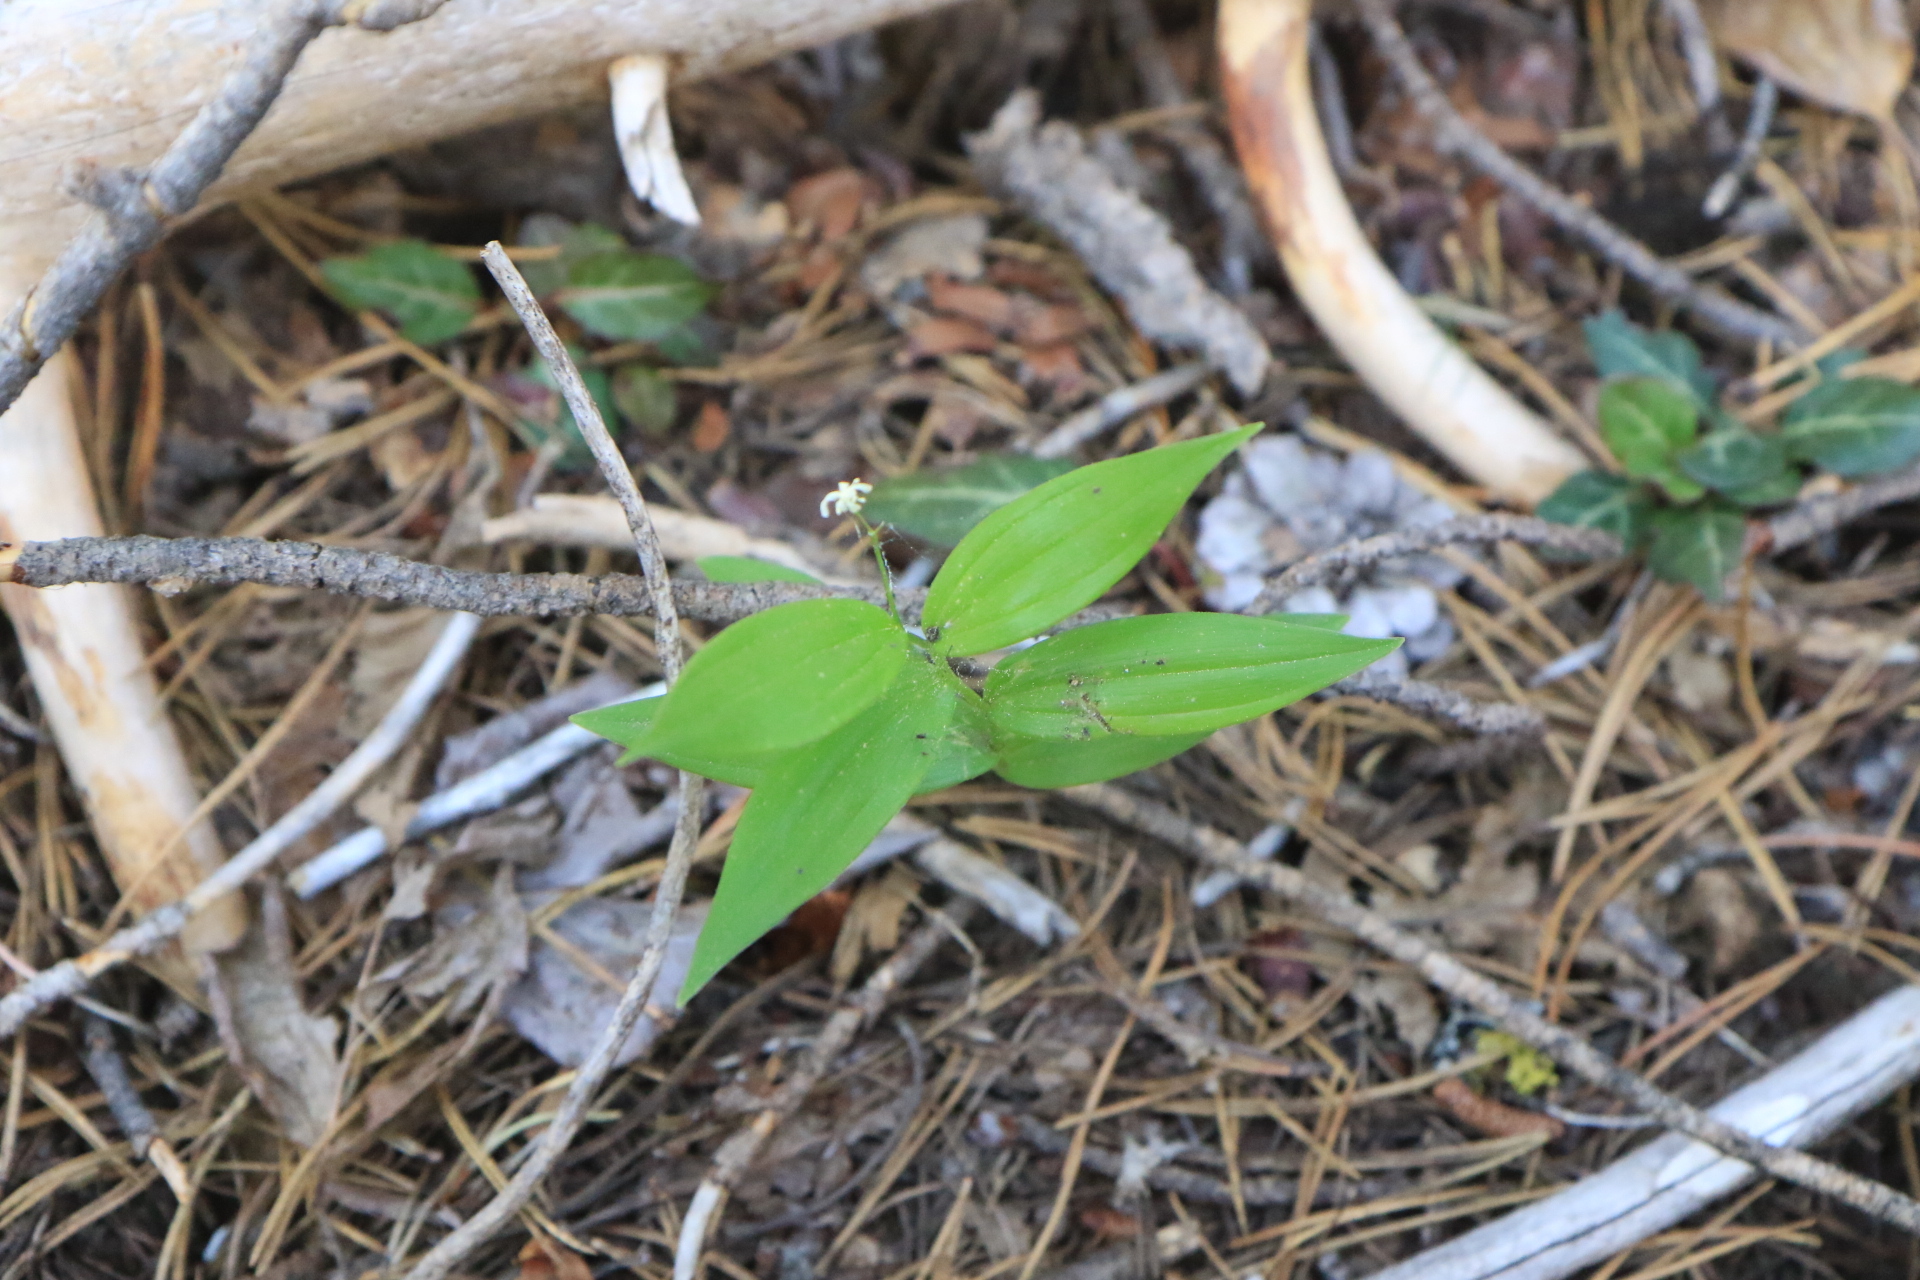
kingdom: Plantae
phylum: Tracheophyta
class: Liliopsida
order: Asparagales
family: Asparagaceae
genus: Maianthemum
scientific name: Maianthemum stellatum
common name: Little false solomon's seal
